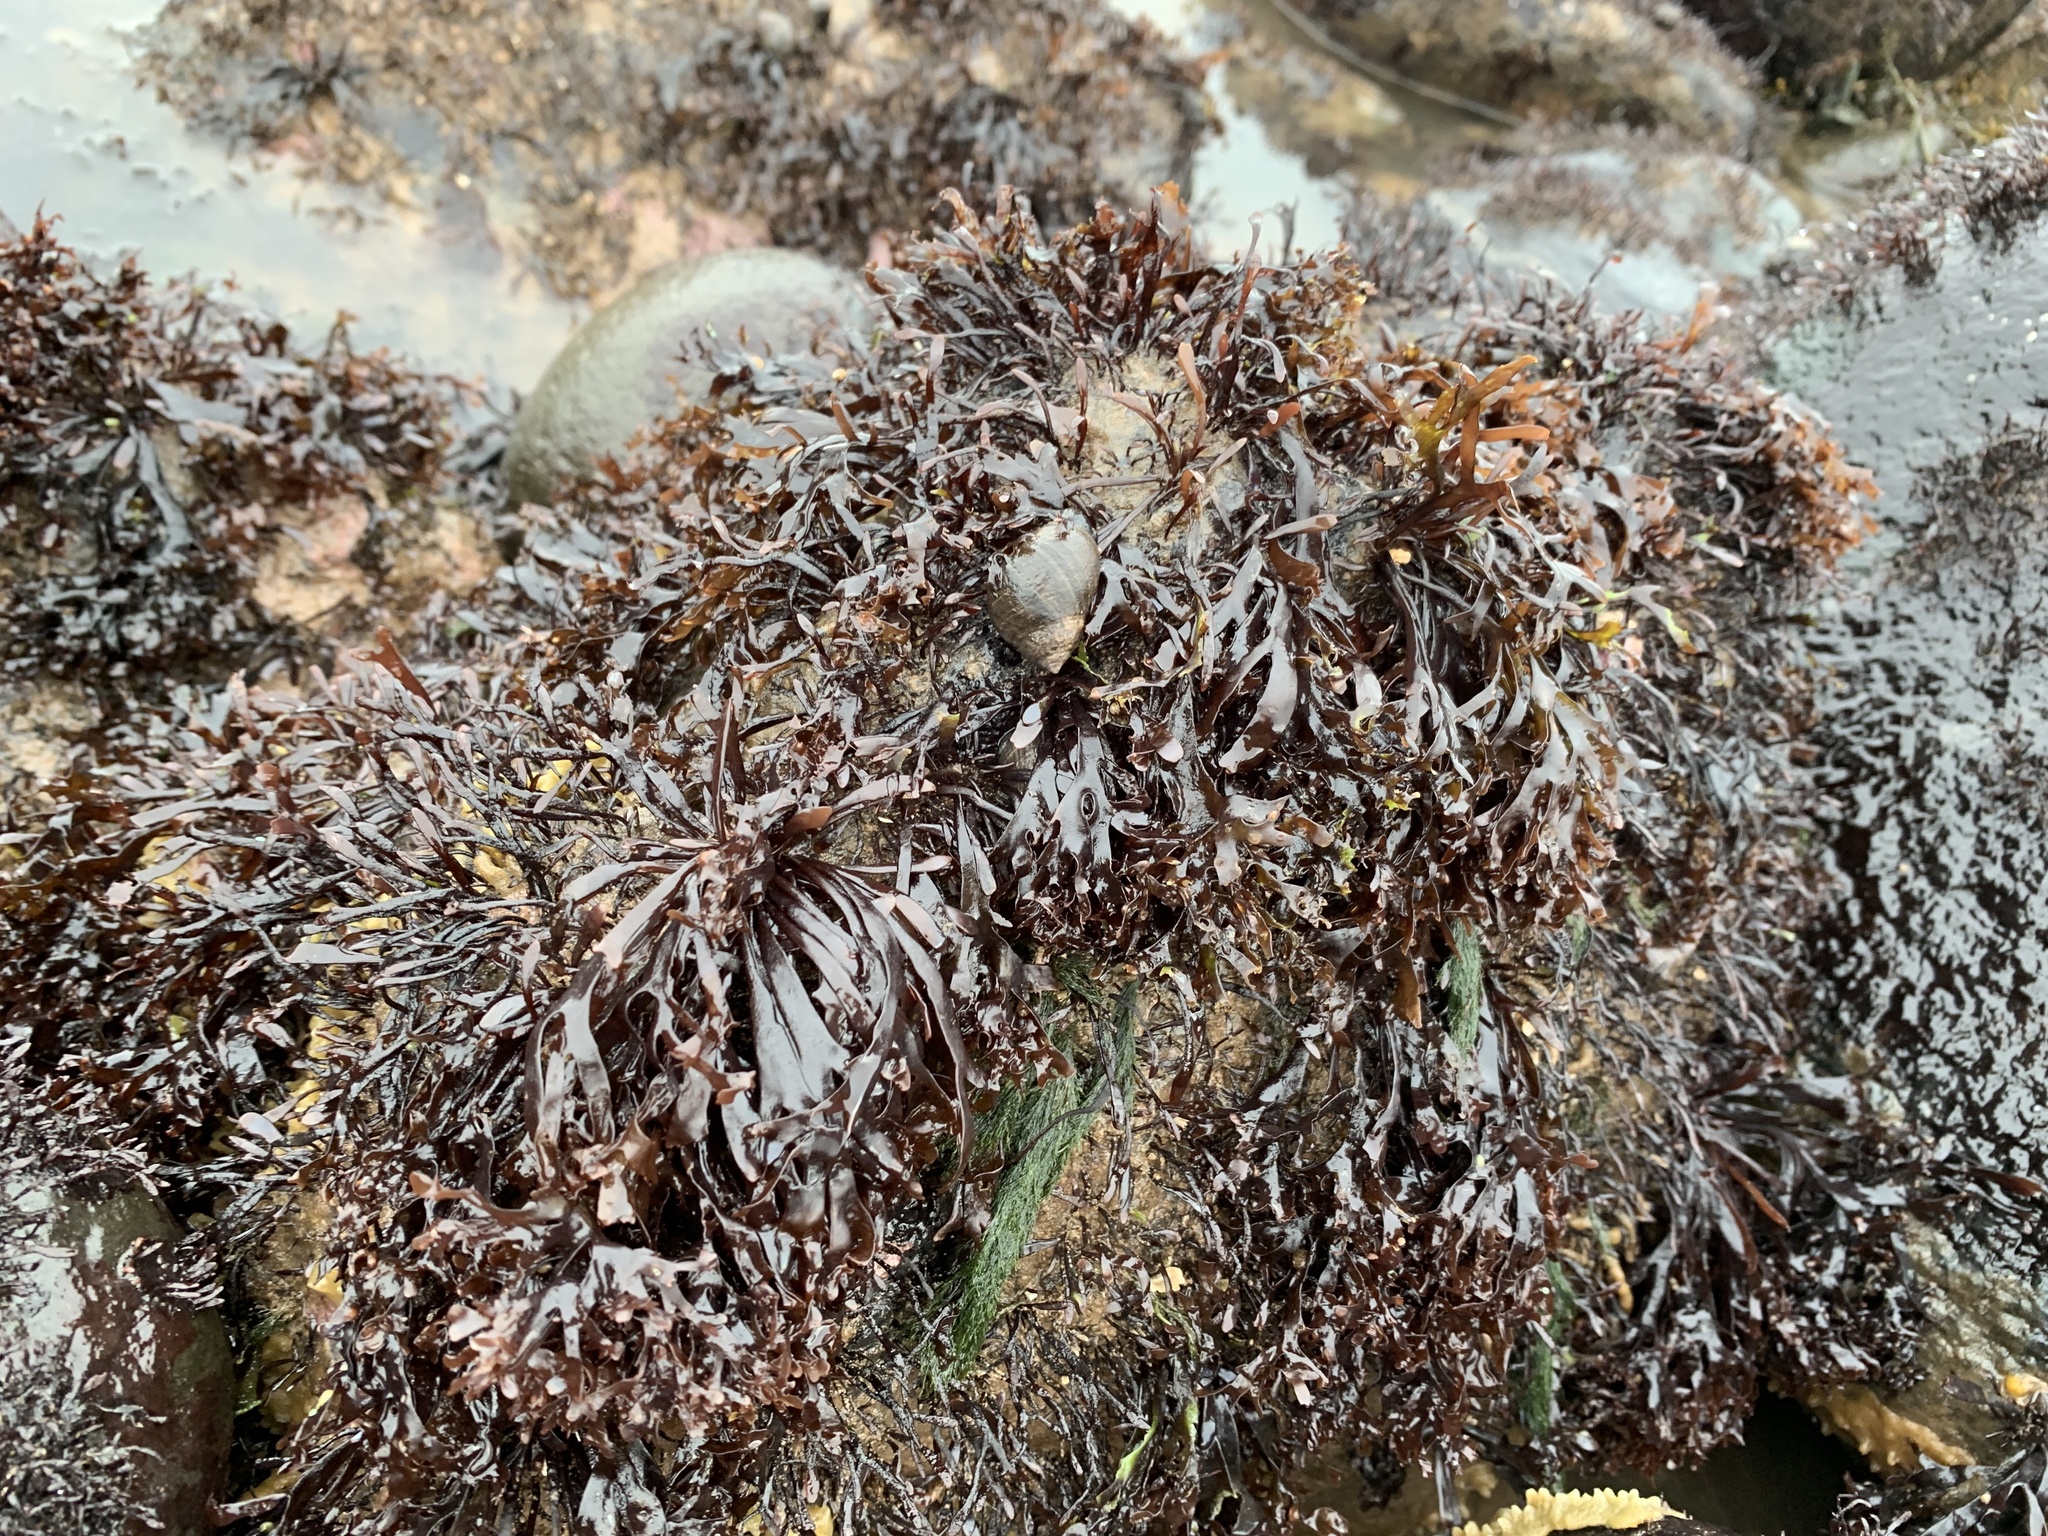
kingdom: Plantae
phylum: Rhodophyta
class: Florideophyceae
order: Gigartinales
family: Gigartinaceae
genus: Chondrus
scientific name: Chondrus crispus
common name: Carrageen
